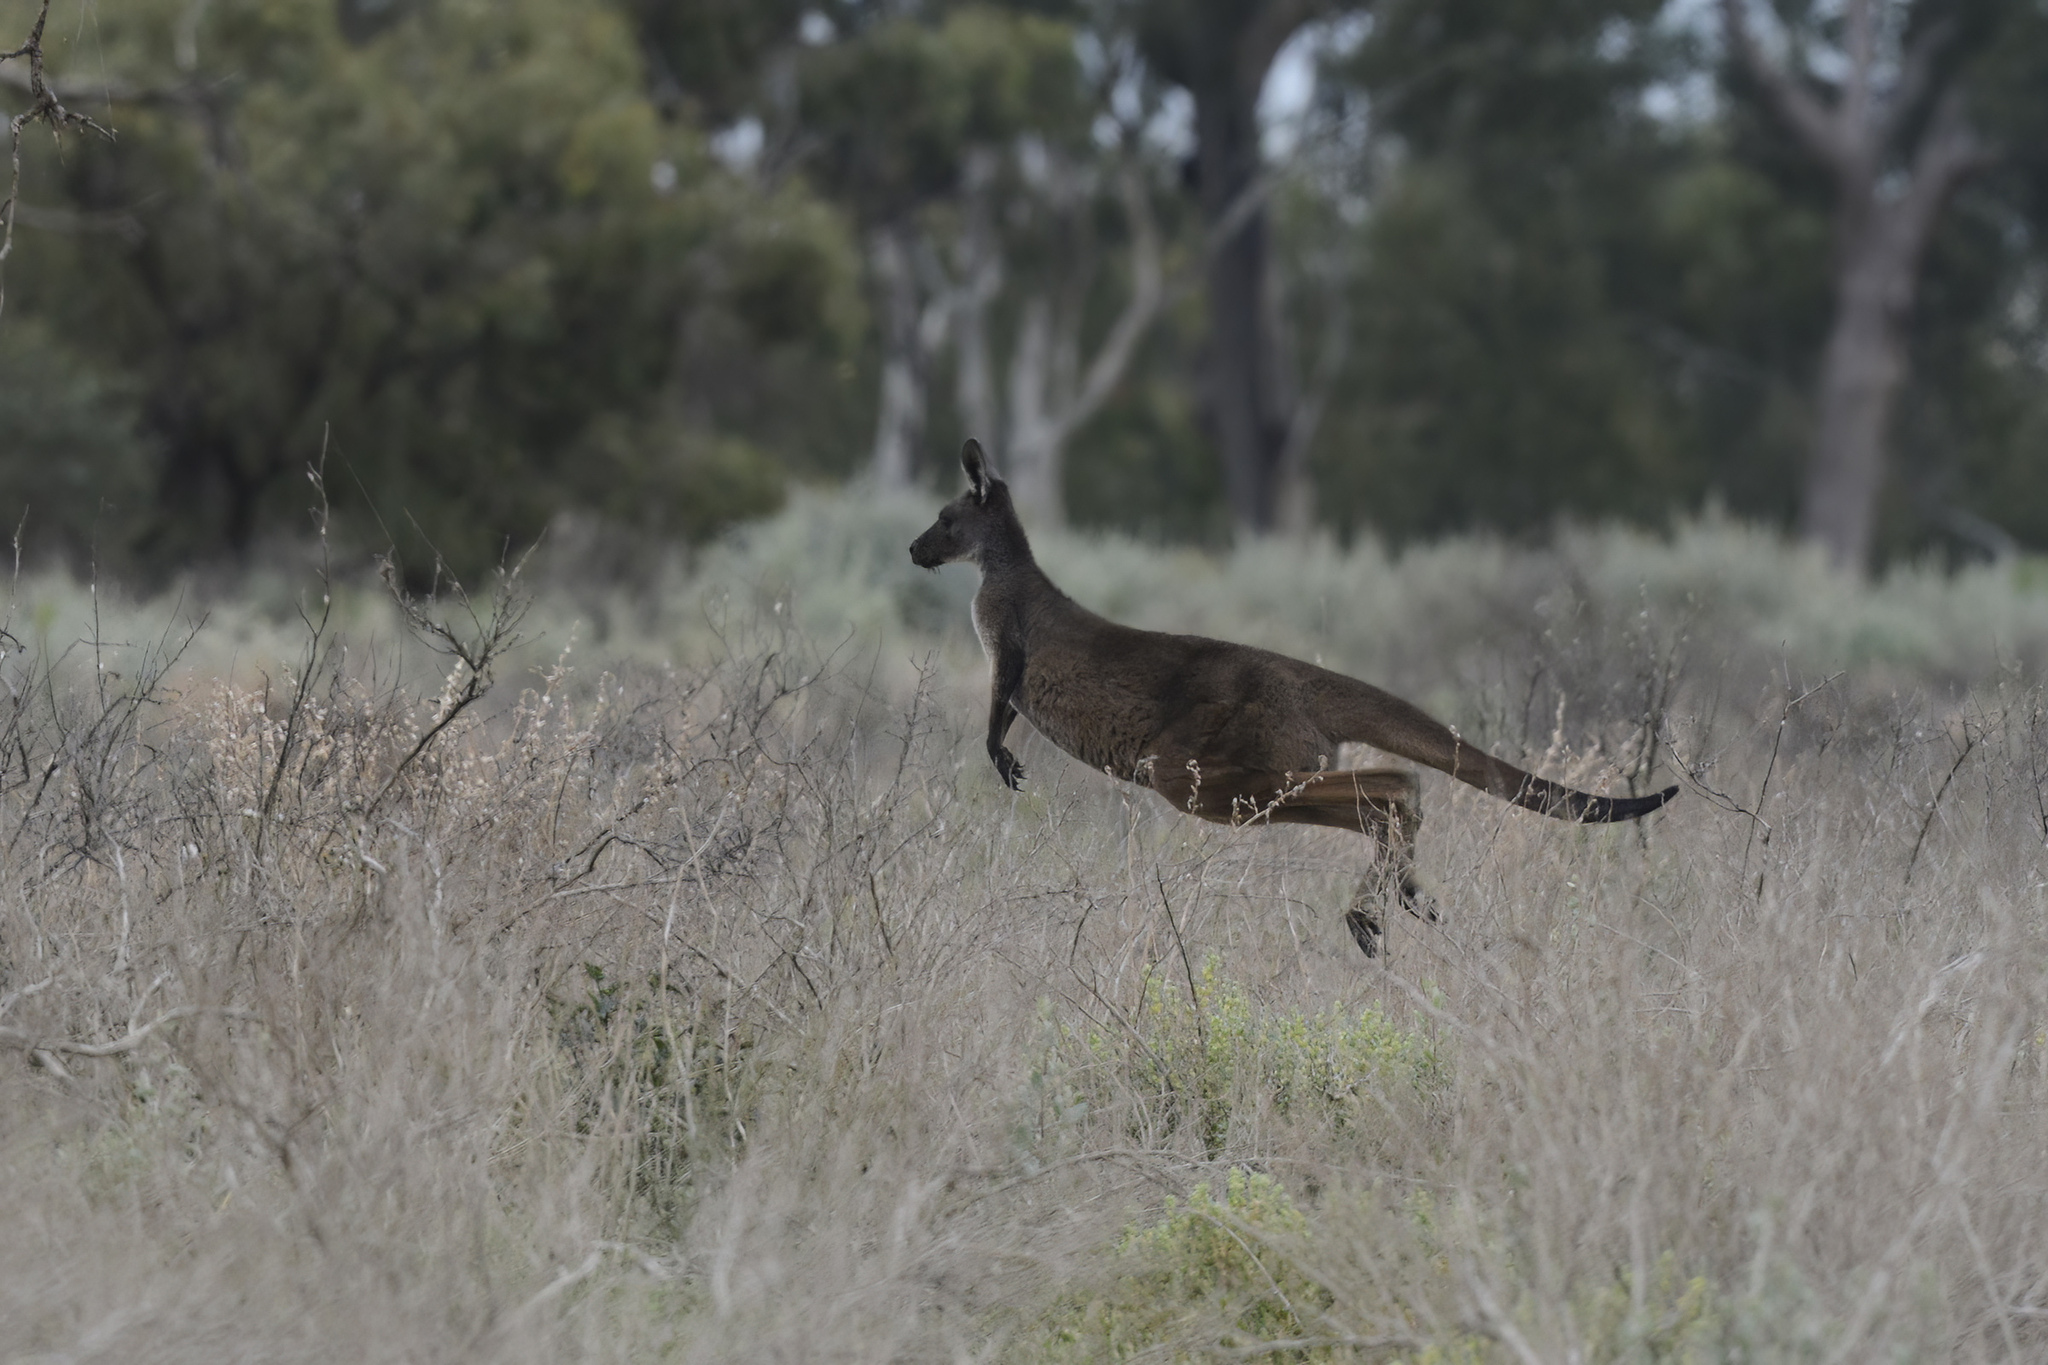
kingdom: Animalia
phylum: Chordata
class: Mammalia
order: Diprotodontia
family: Macropodidae
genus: Macropus
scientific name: Macropus fuliginosus
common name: Western grey kangaroo
